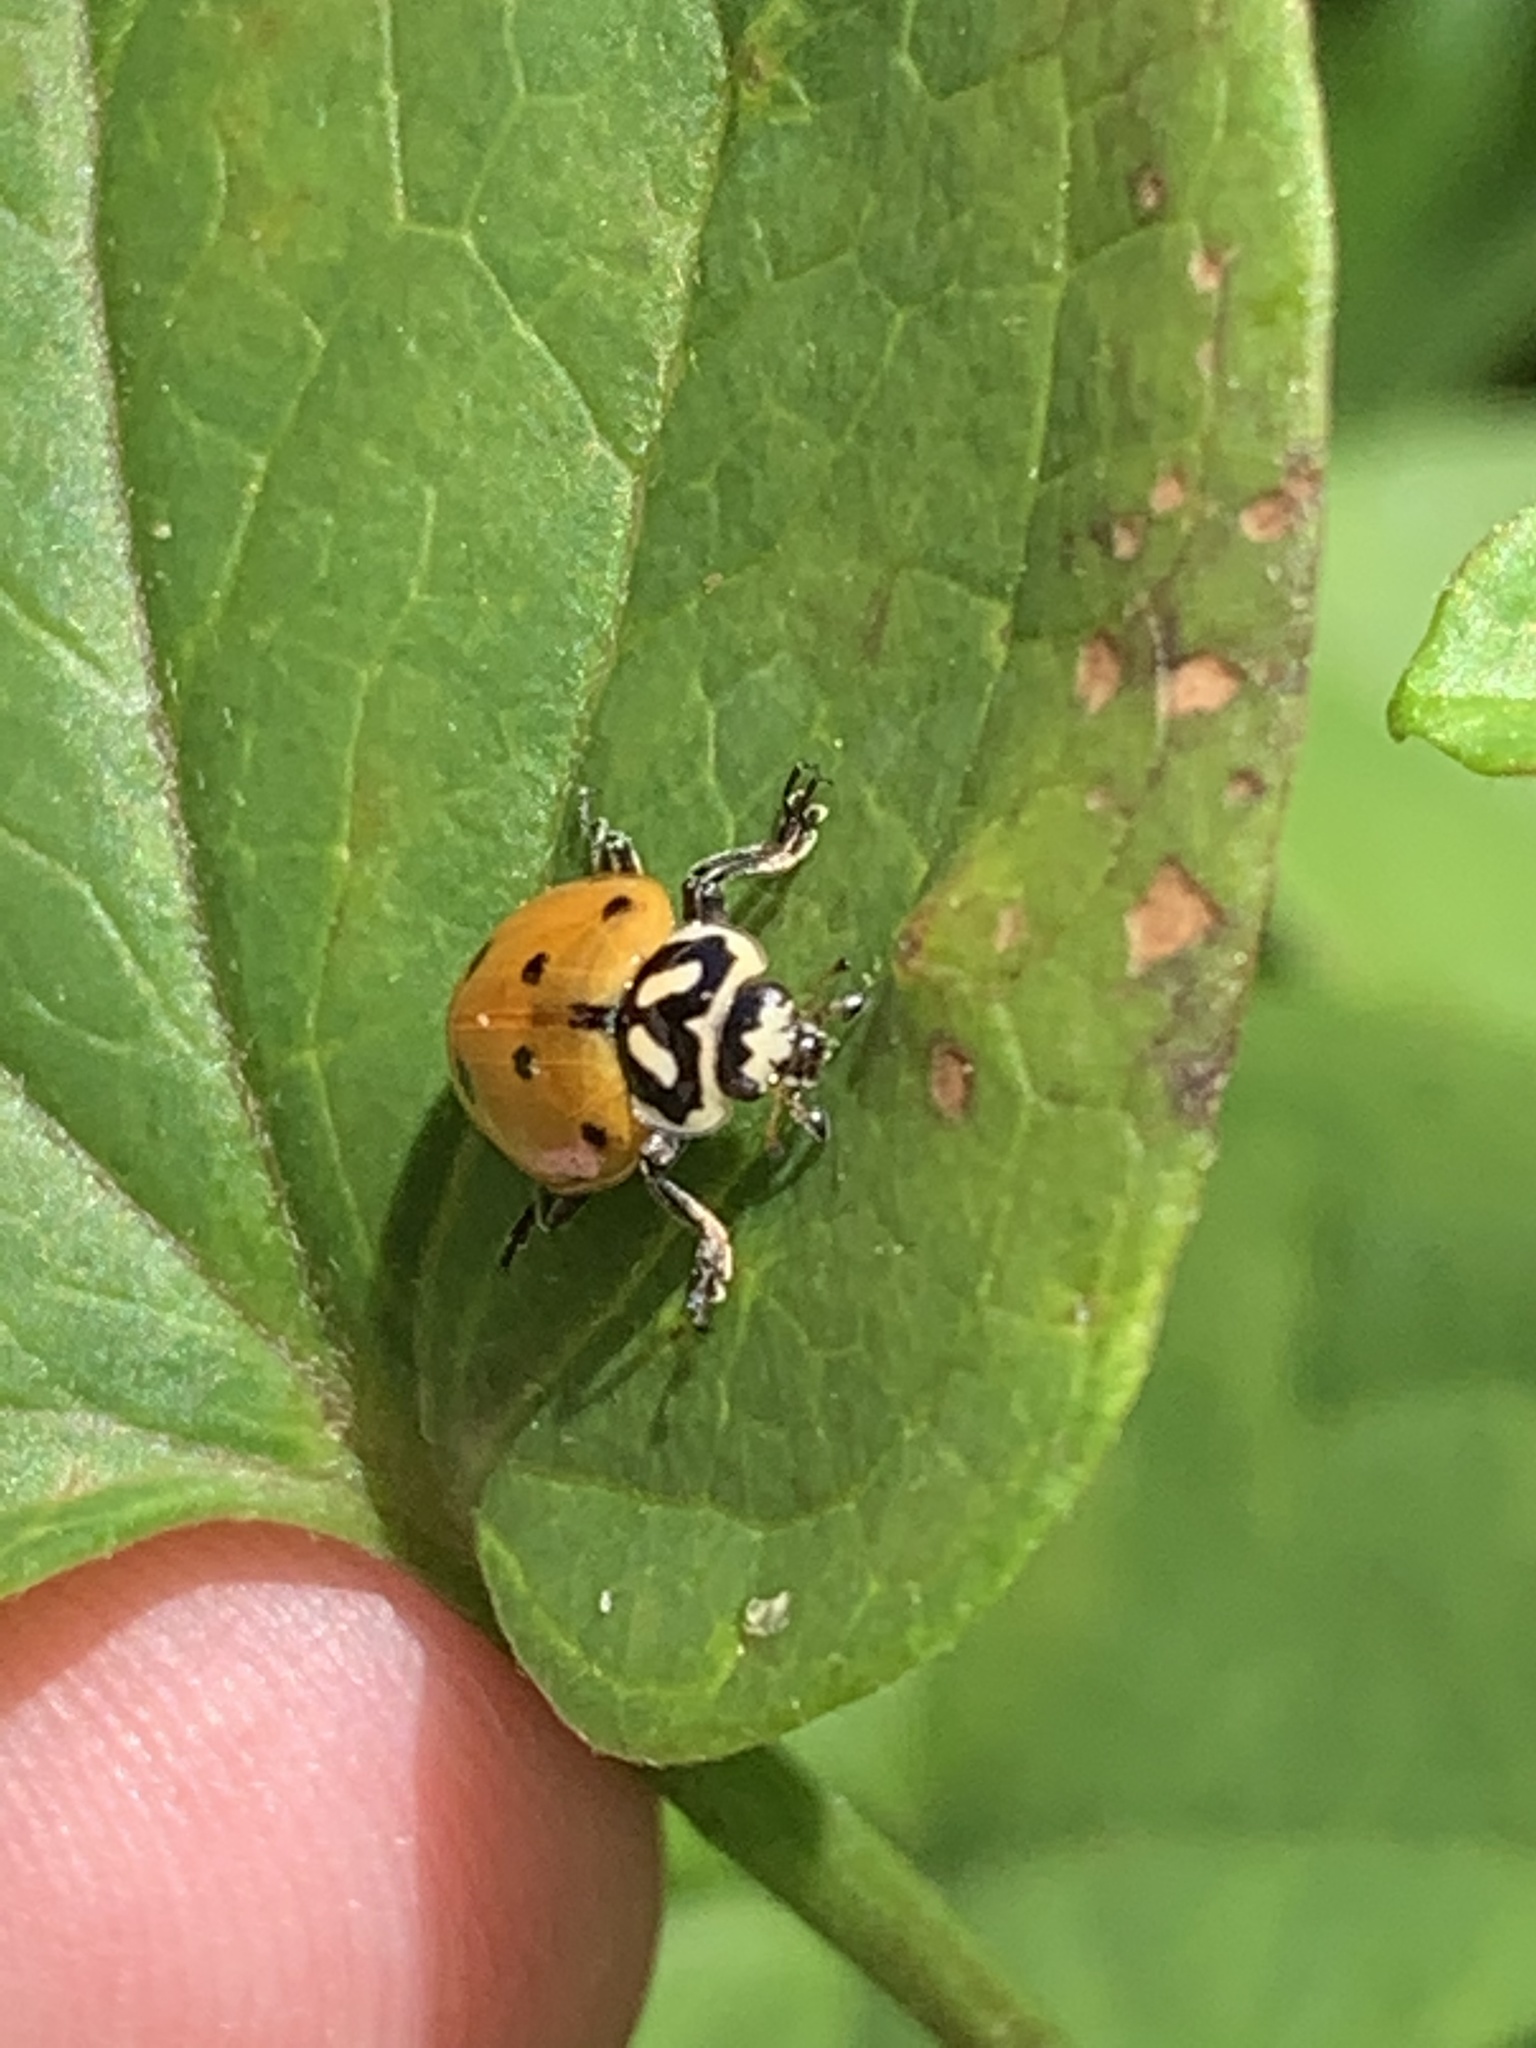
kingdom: Animalia
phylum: Arthropoda
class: Insecta
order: Coleoptera
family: Coccinellidae
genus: Hippodamia
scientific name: Hippodamia convergens
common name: Convergent lady beetle
